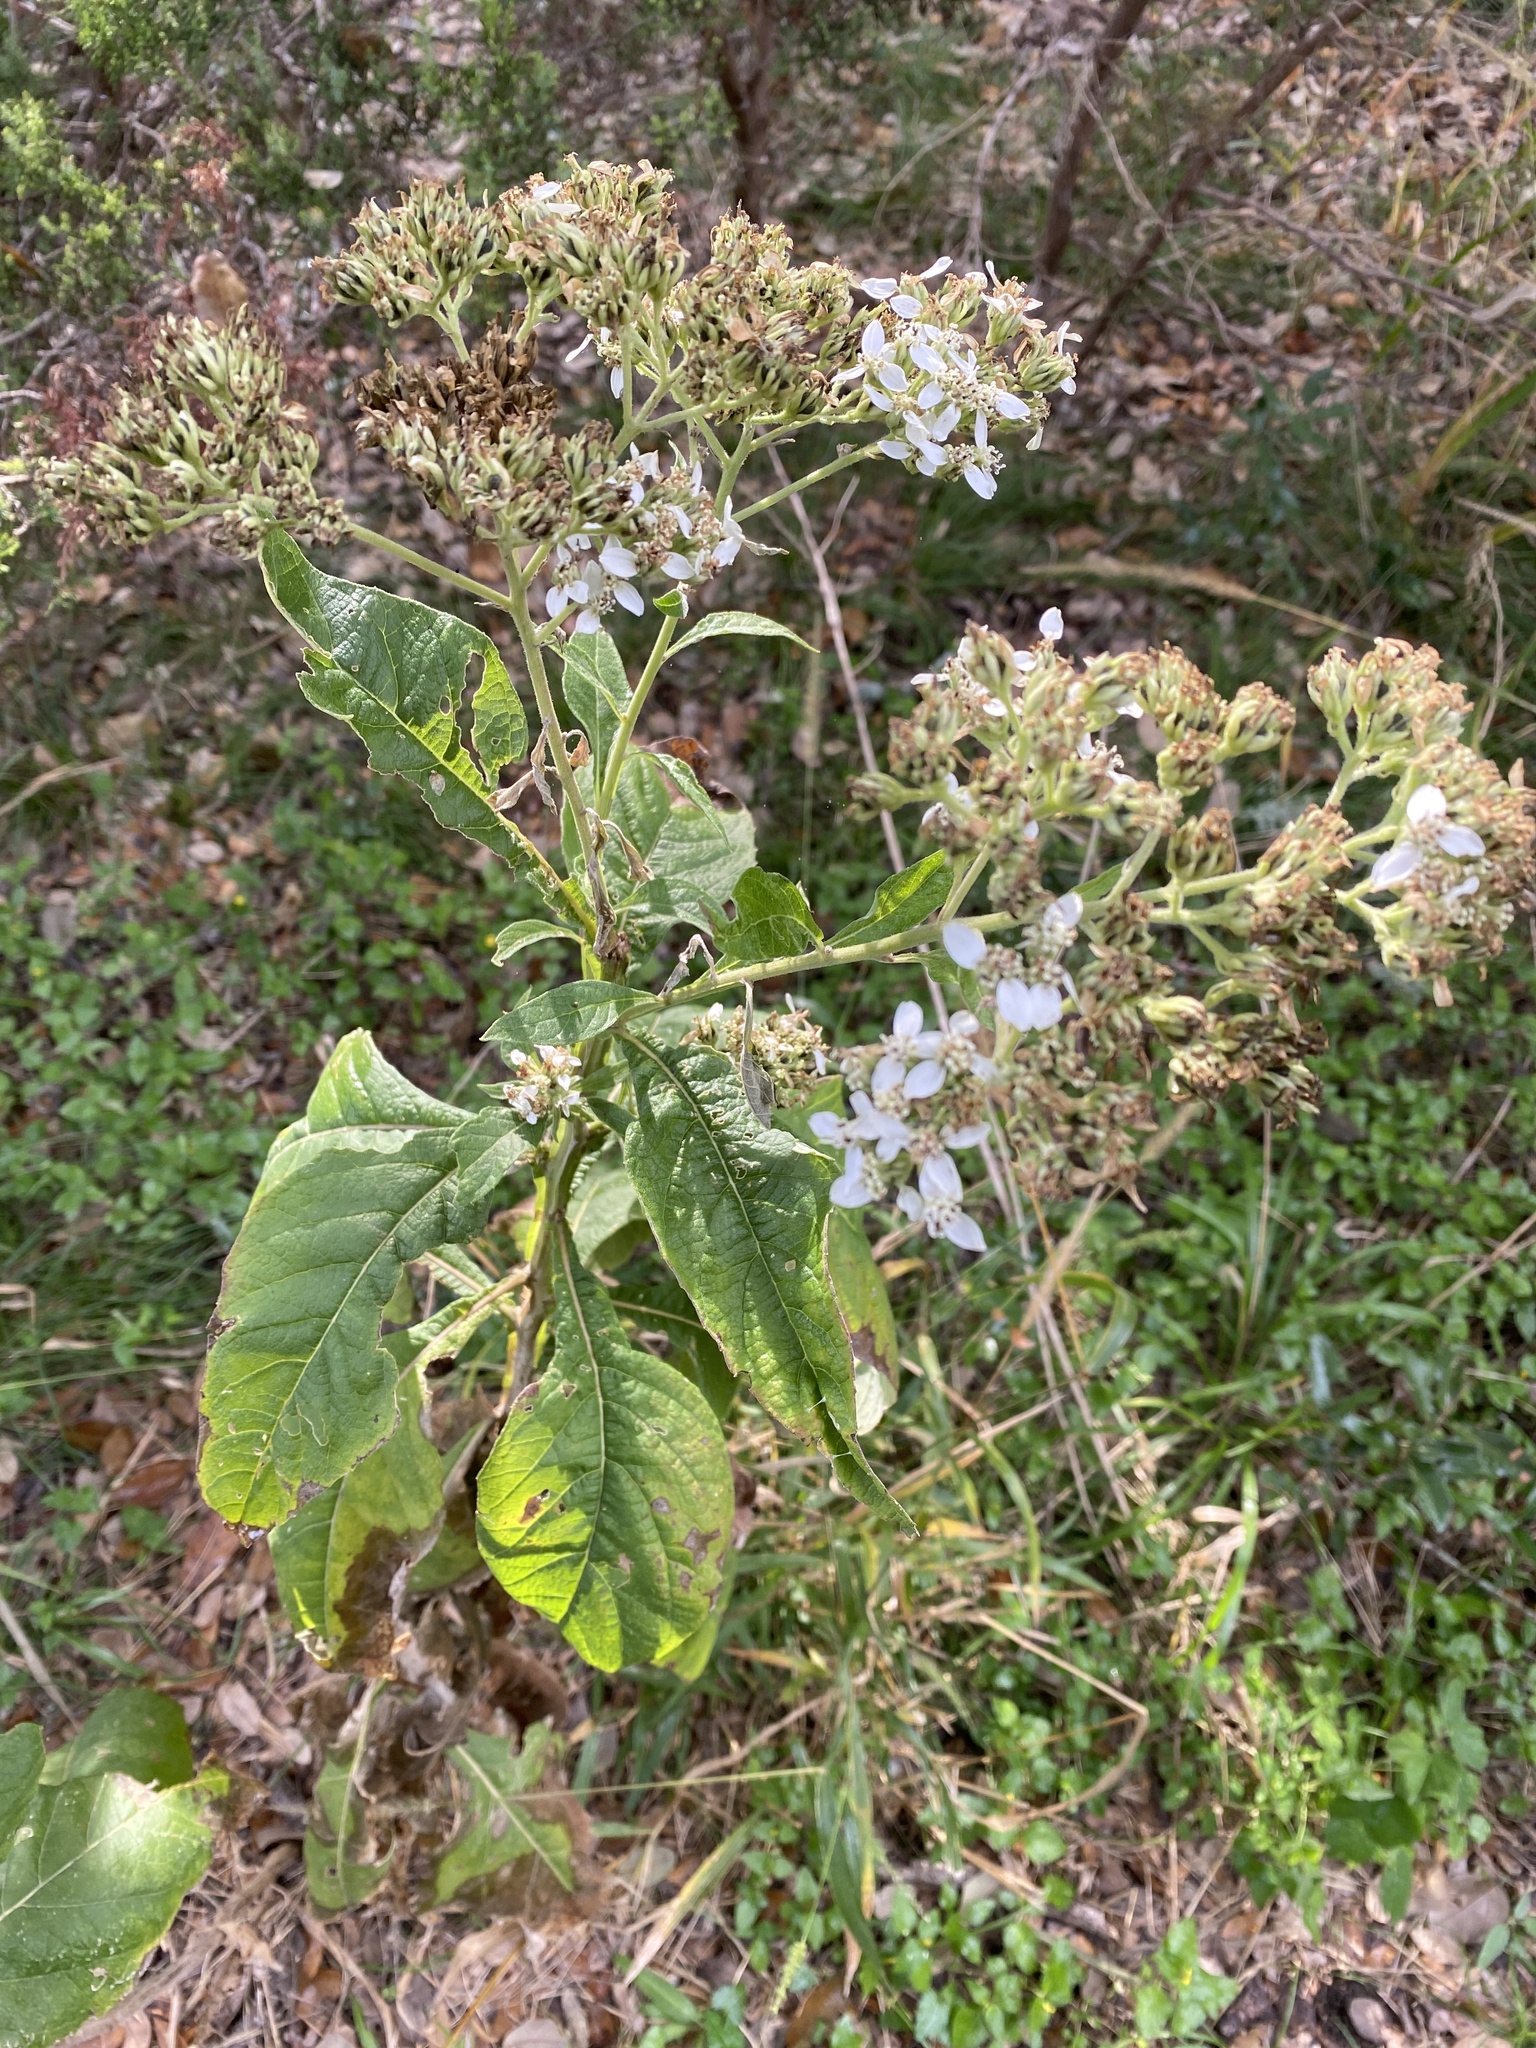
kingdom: Plantae
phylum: Tracheophyta
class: Magnoliopsida
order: Asterales
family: Asteraceae
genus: Verbesina
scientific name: Verbesina virginica
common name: Frostweed
